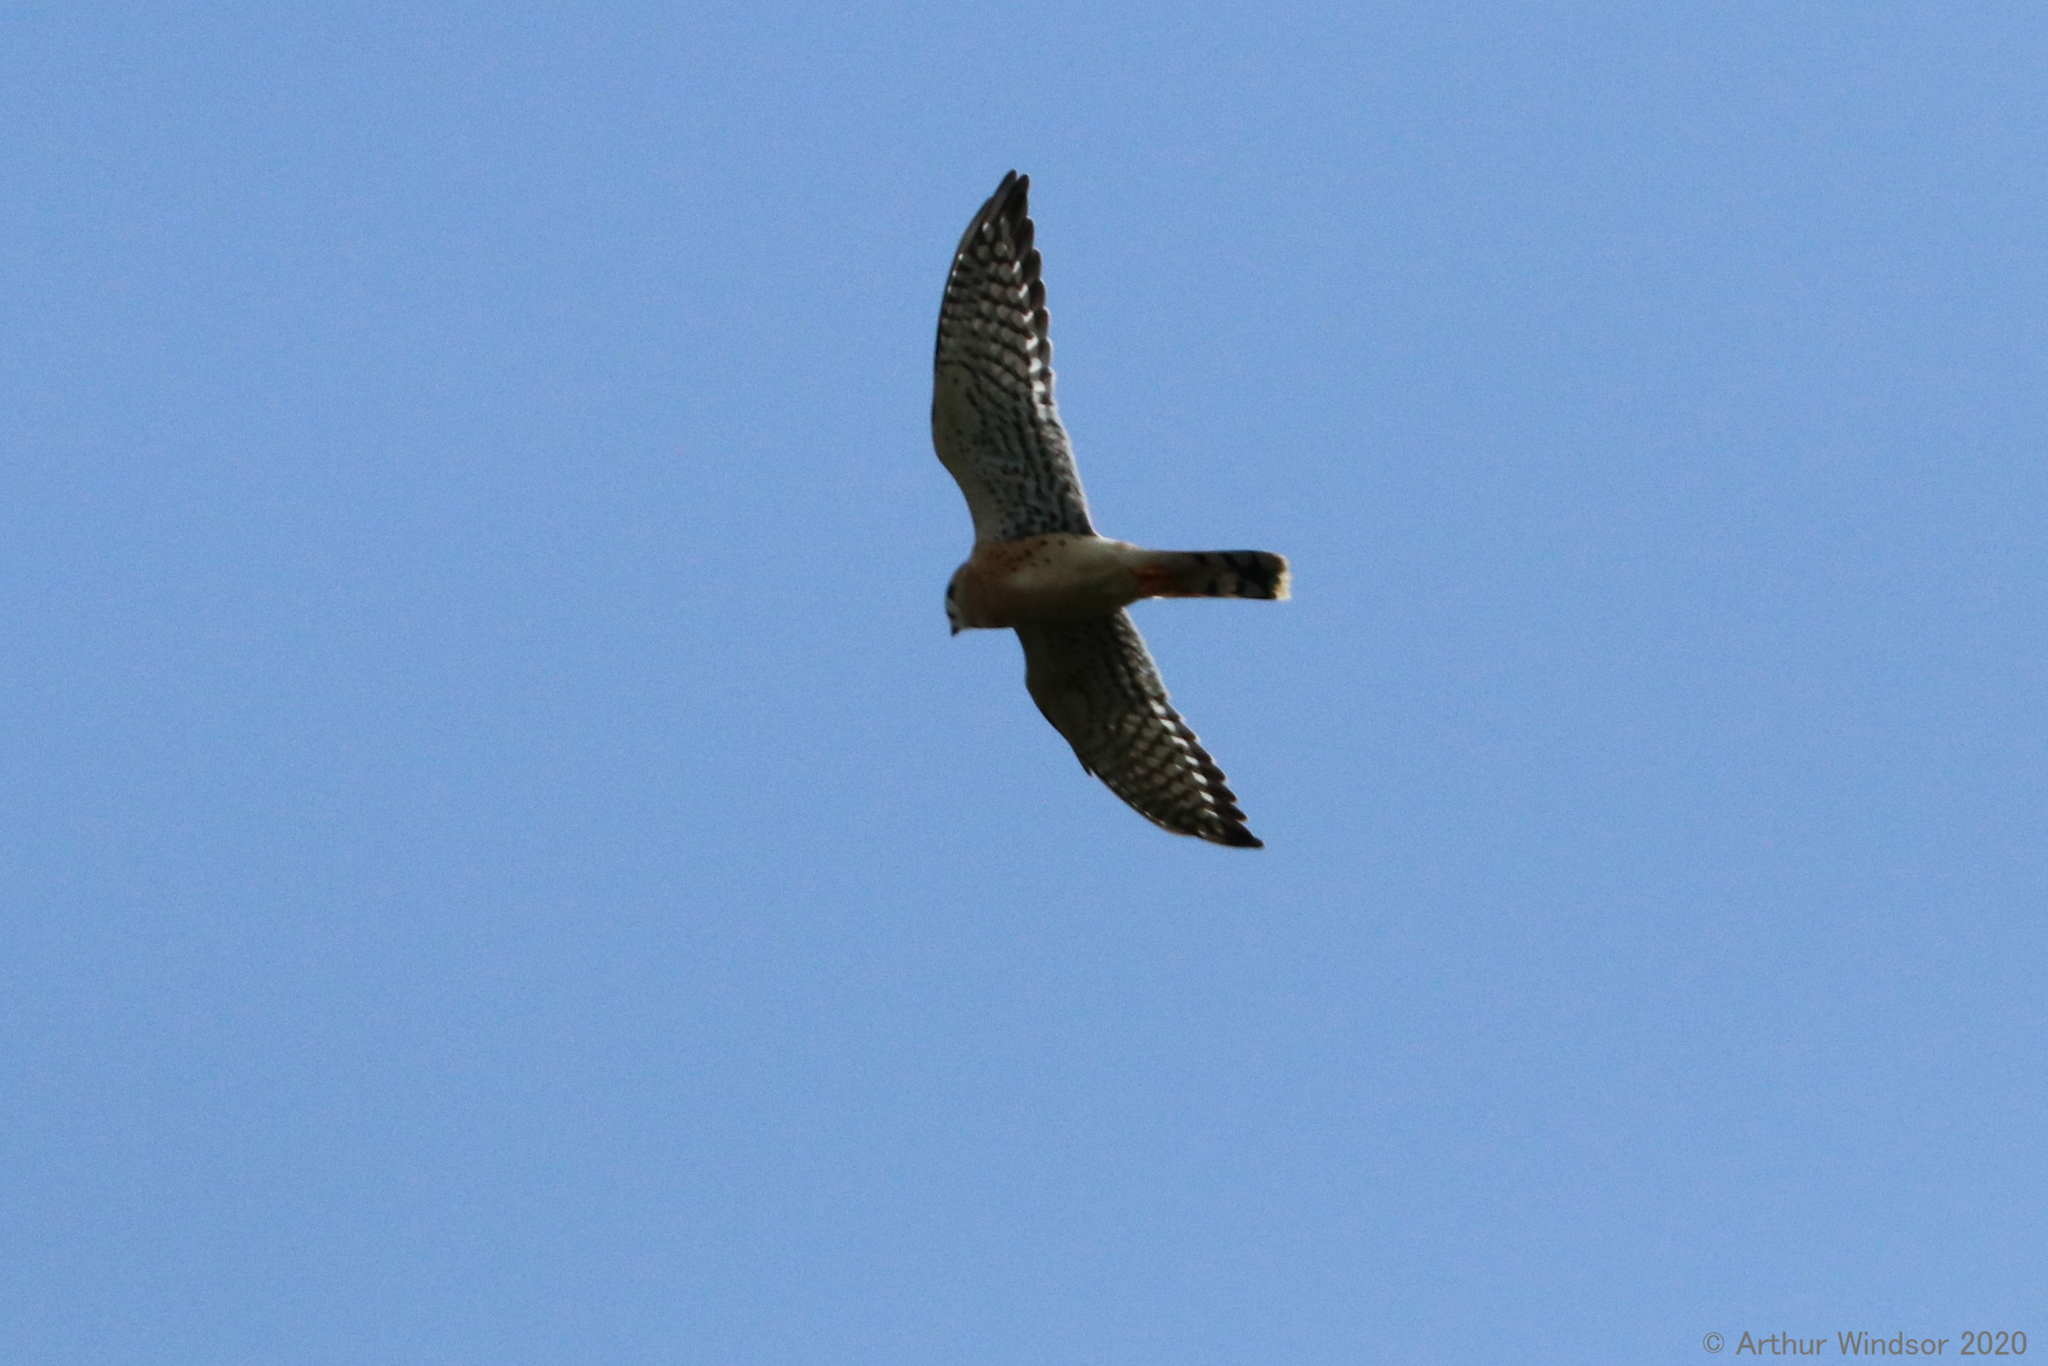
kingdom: Animalia
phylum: Chordata
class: Aves
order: Falconiformes
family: Falconidae
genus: Falco
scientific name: Falco sparverius
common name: American kestrel
